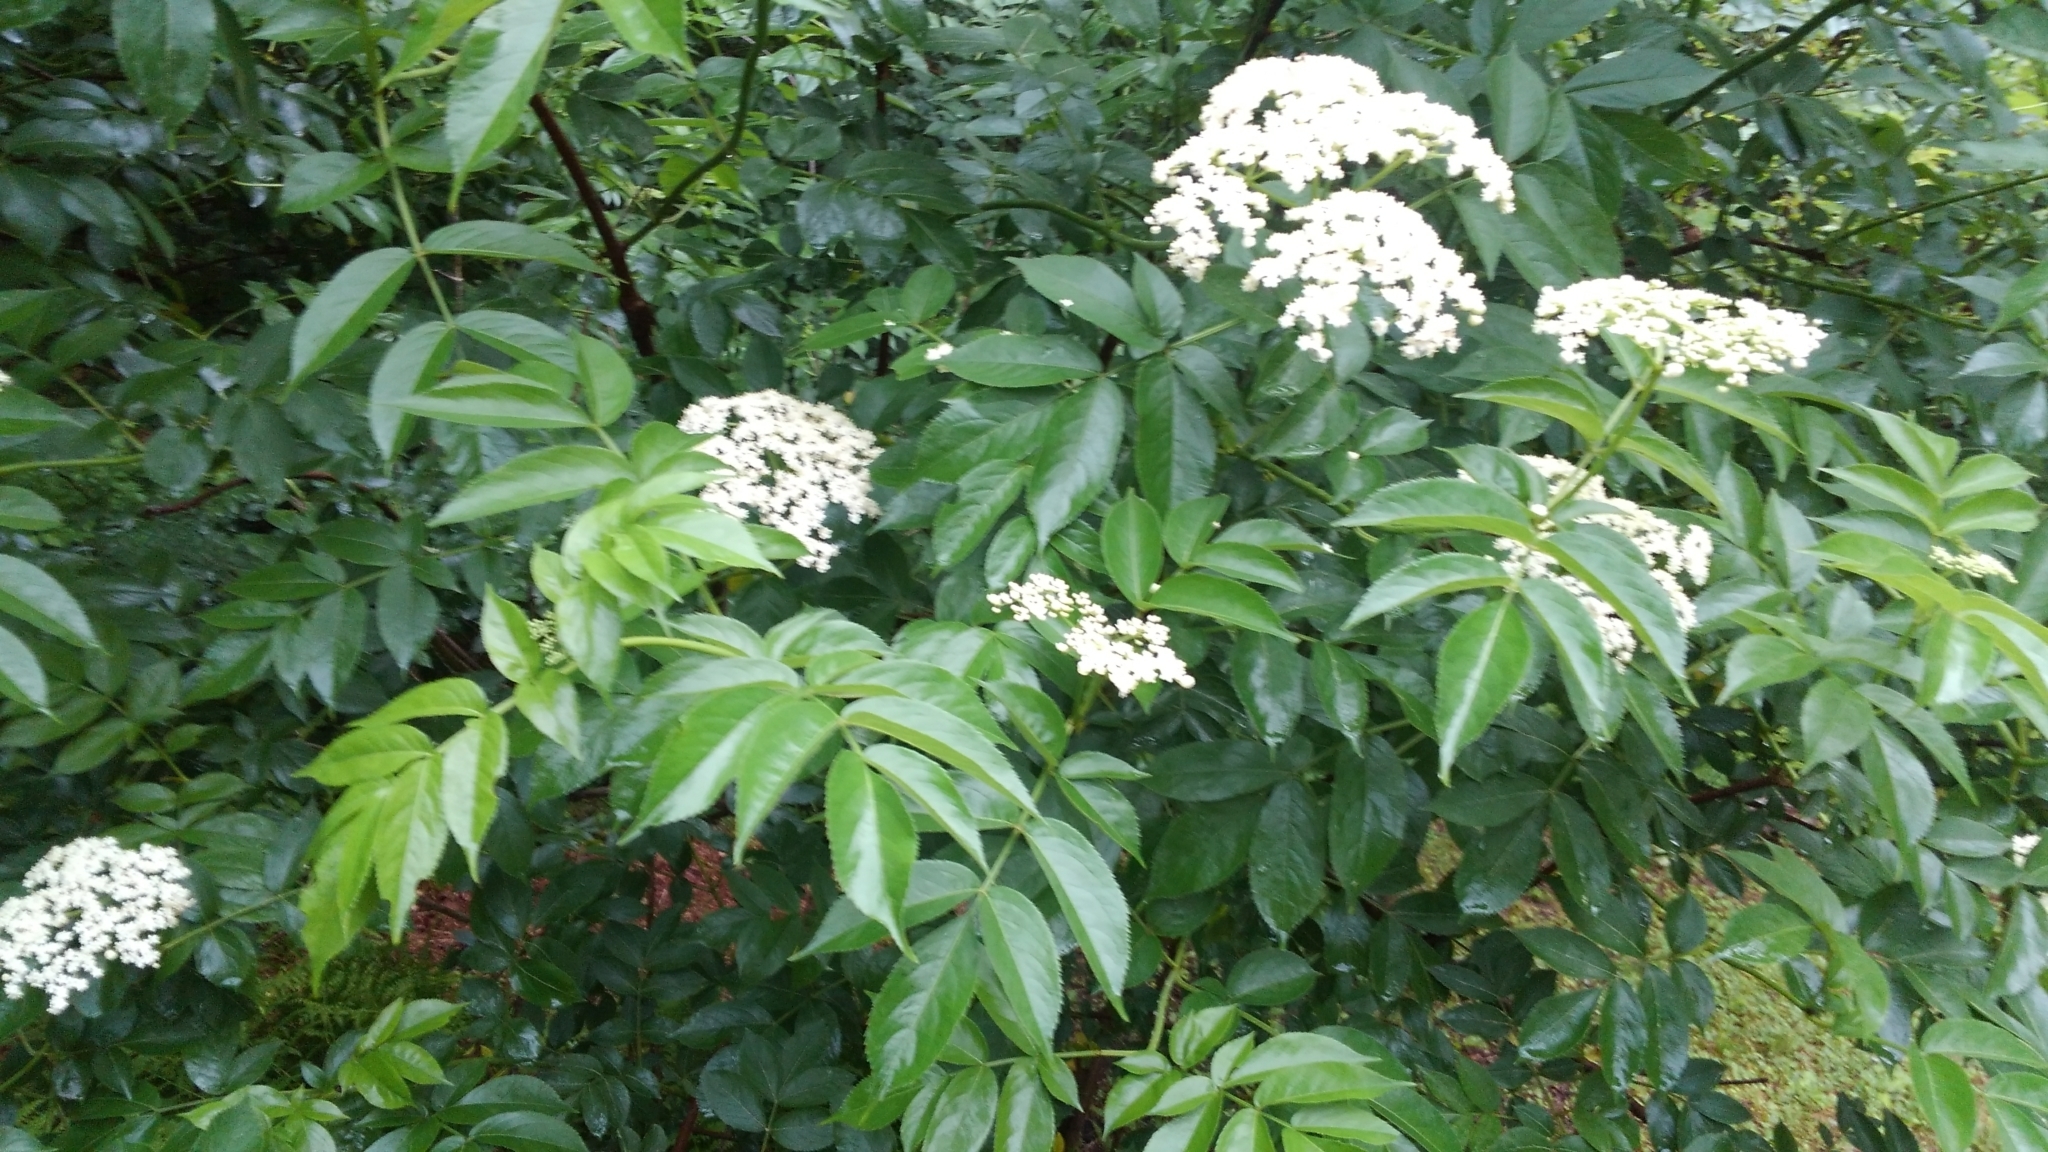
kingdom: Plantae
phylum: Tracheophyta
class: Magnoliopsida
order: Dipsacales
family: Viburnaceae
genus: Sambucus
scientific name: Sambucus canadensis
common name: American elder
